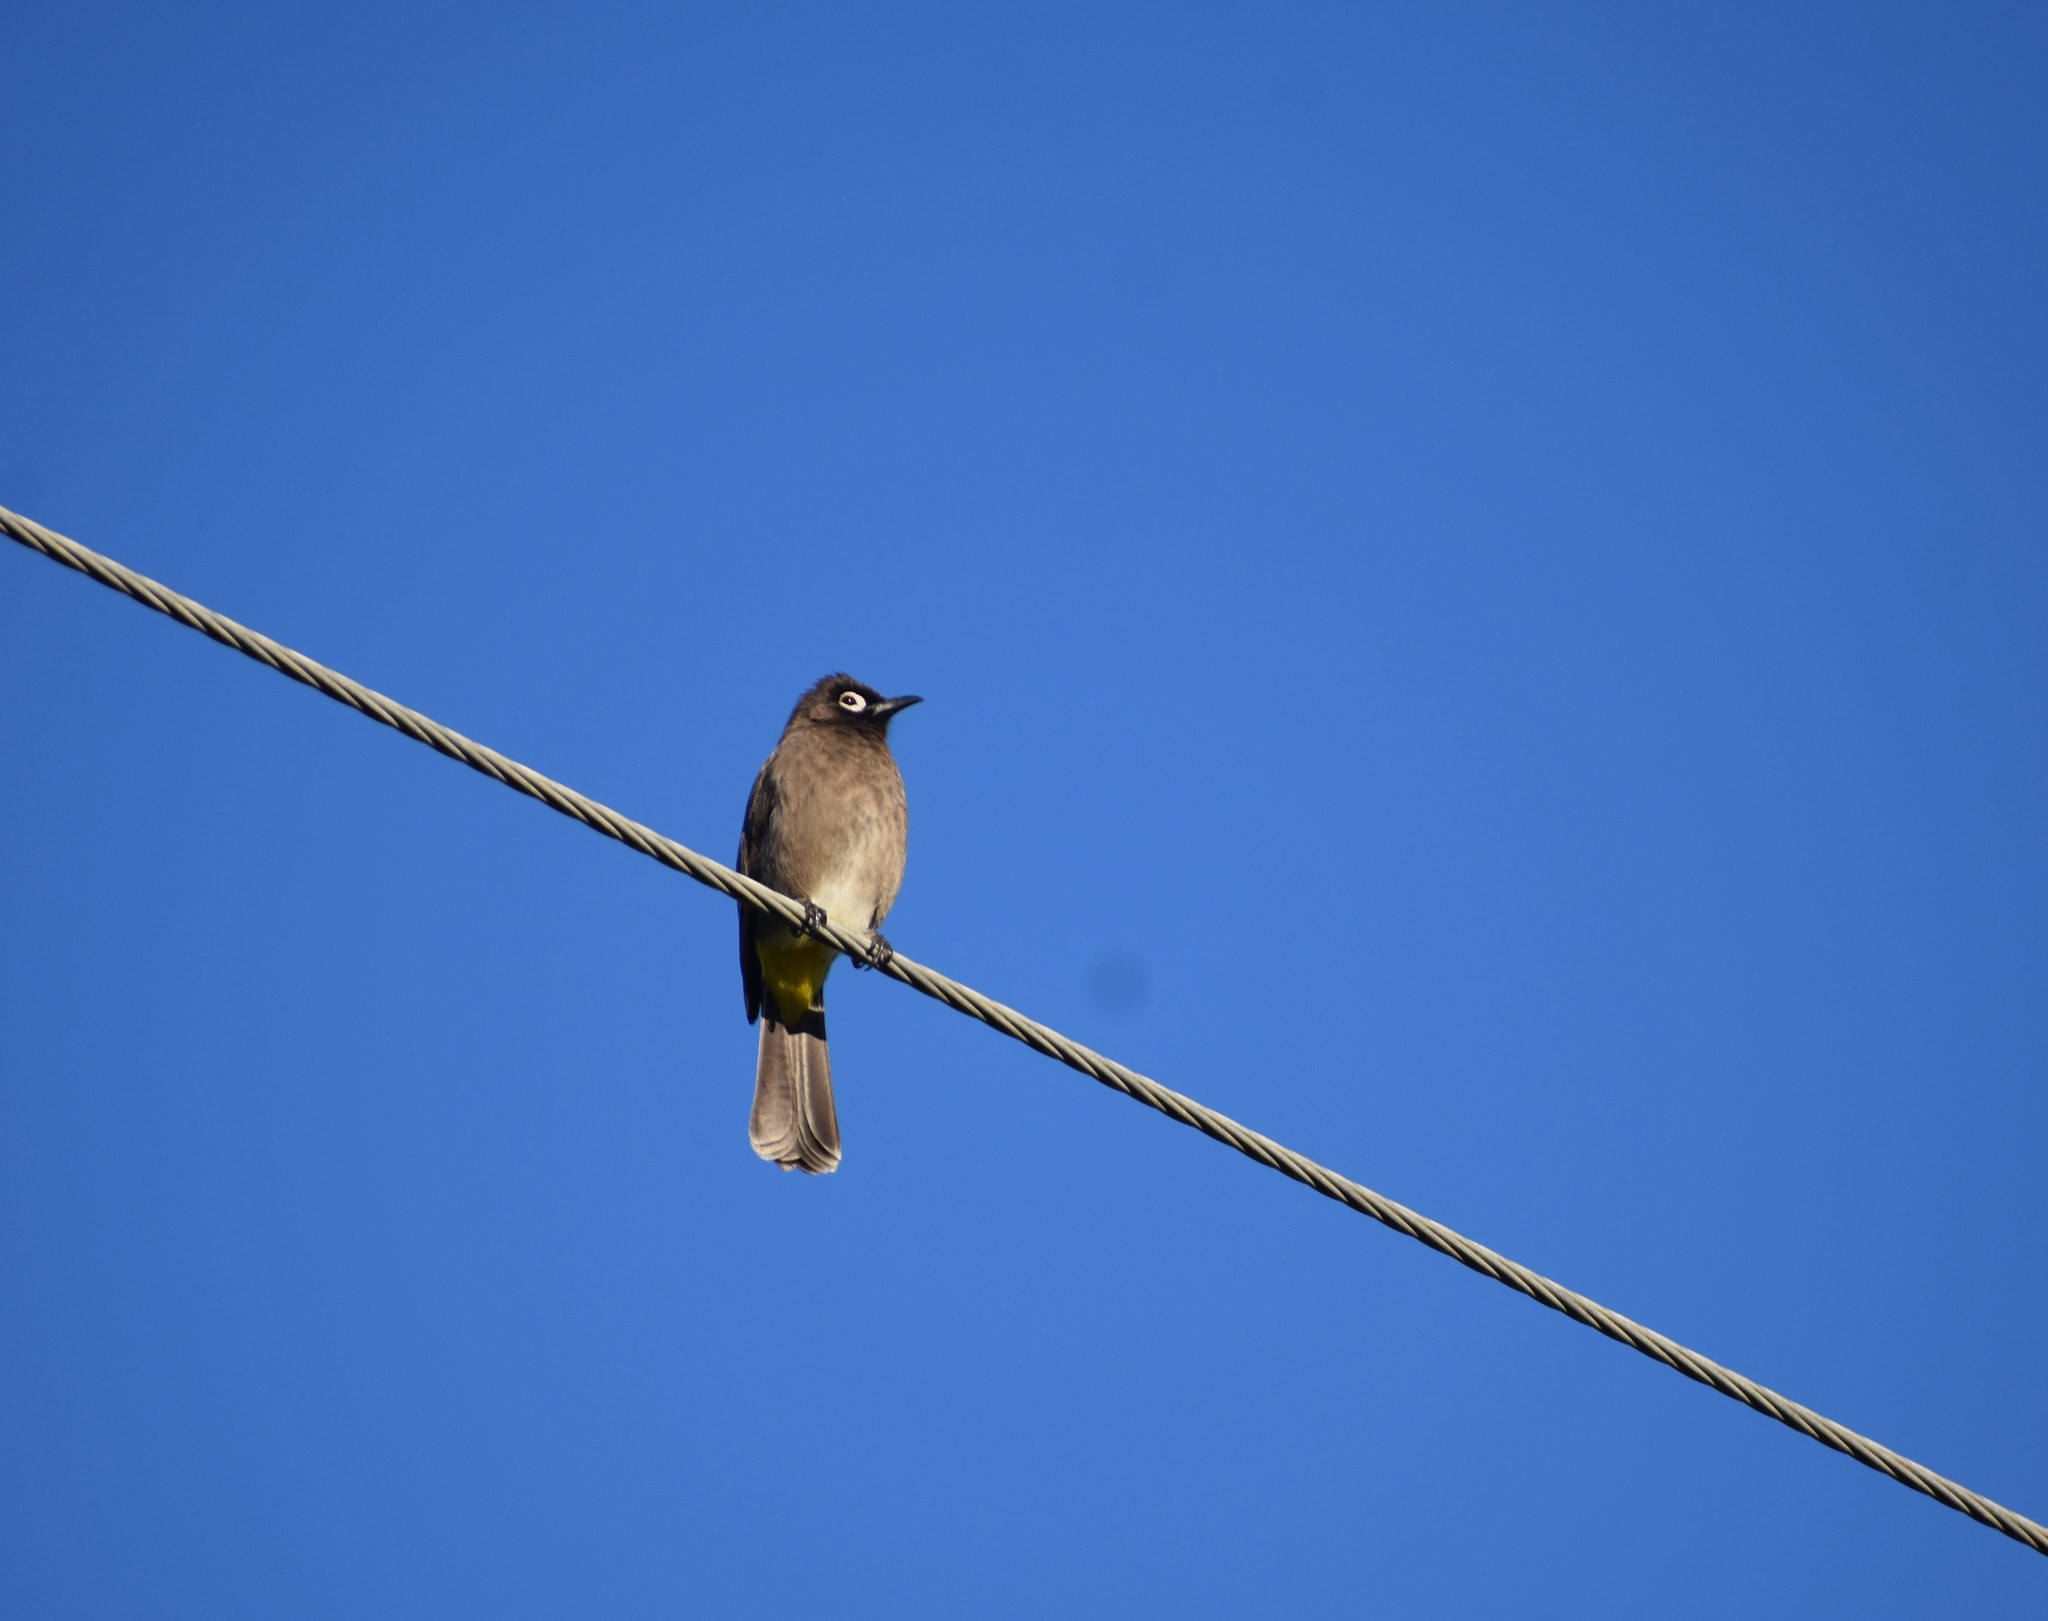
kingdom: Animalia
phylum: Chordata
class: Aves
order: Passeriformes
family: Pycnonotidae
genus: Pycnonotus
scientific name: Pycnonotus capensis
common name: Cape bulbul
